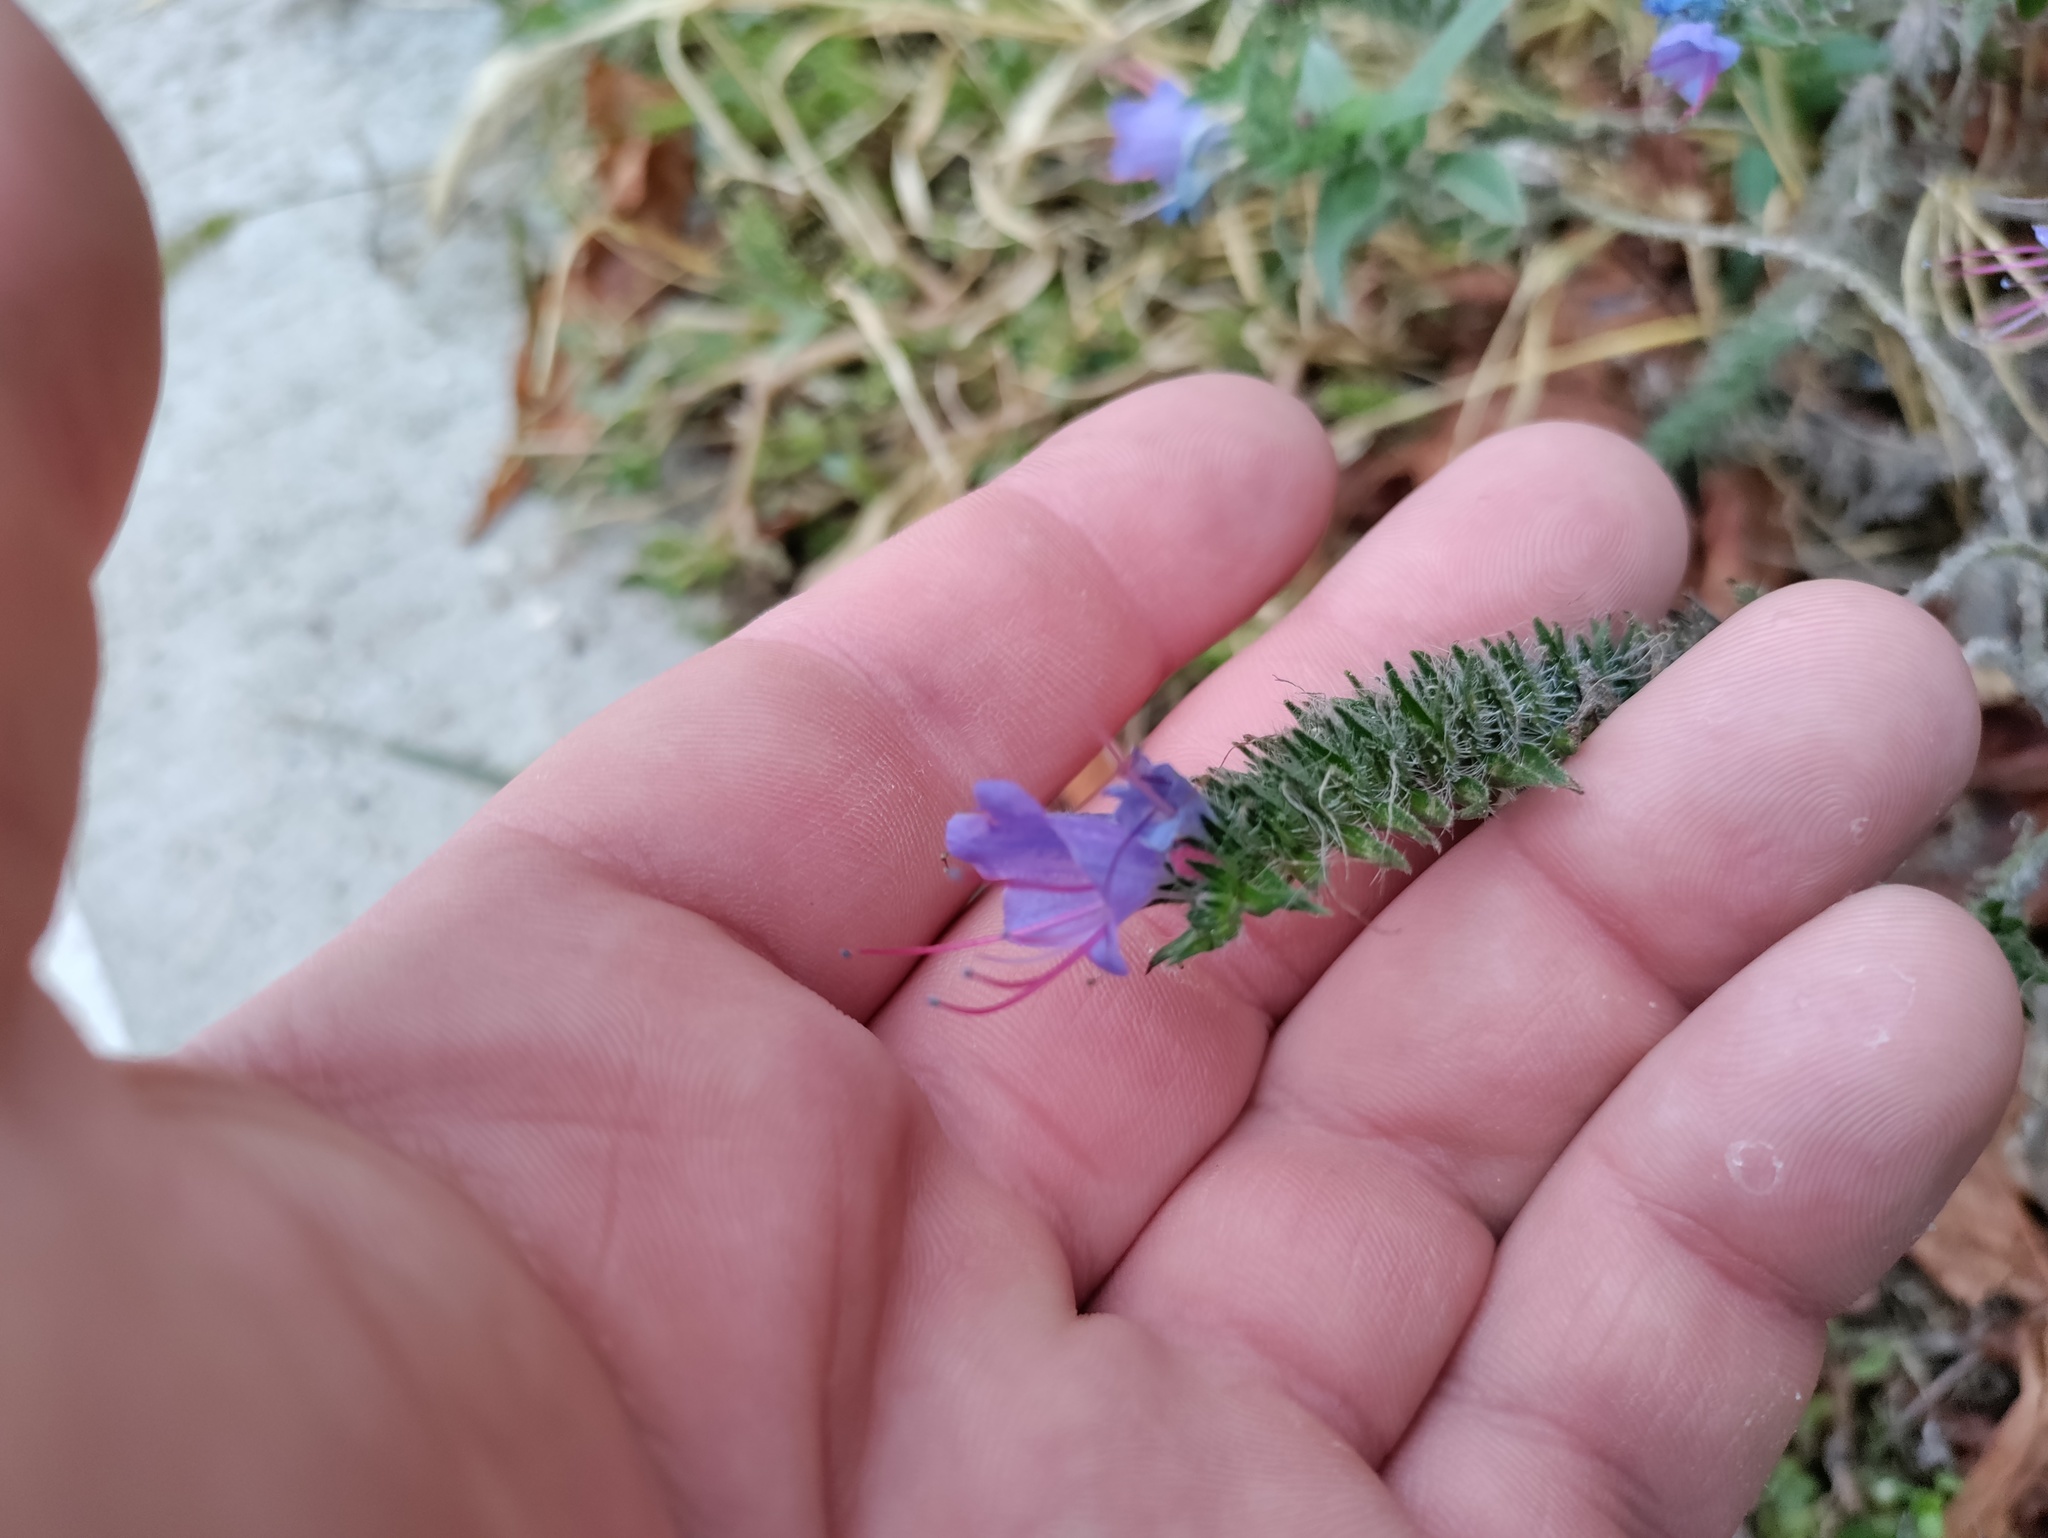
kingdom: Plantae
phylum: Tracheophyta
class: Magnoliopsida
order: Boraginales
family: Boraginaceae
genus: Echium
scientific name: Echium vulgare
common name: Common viper's bugloss
